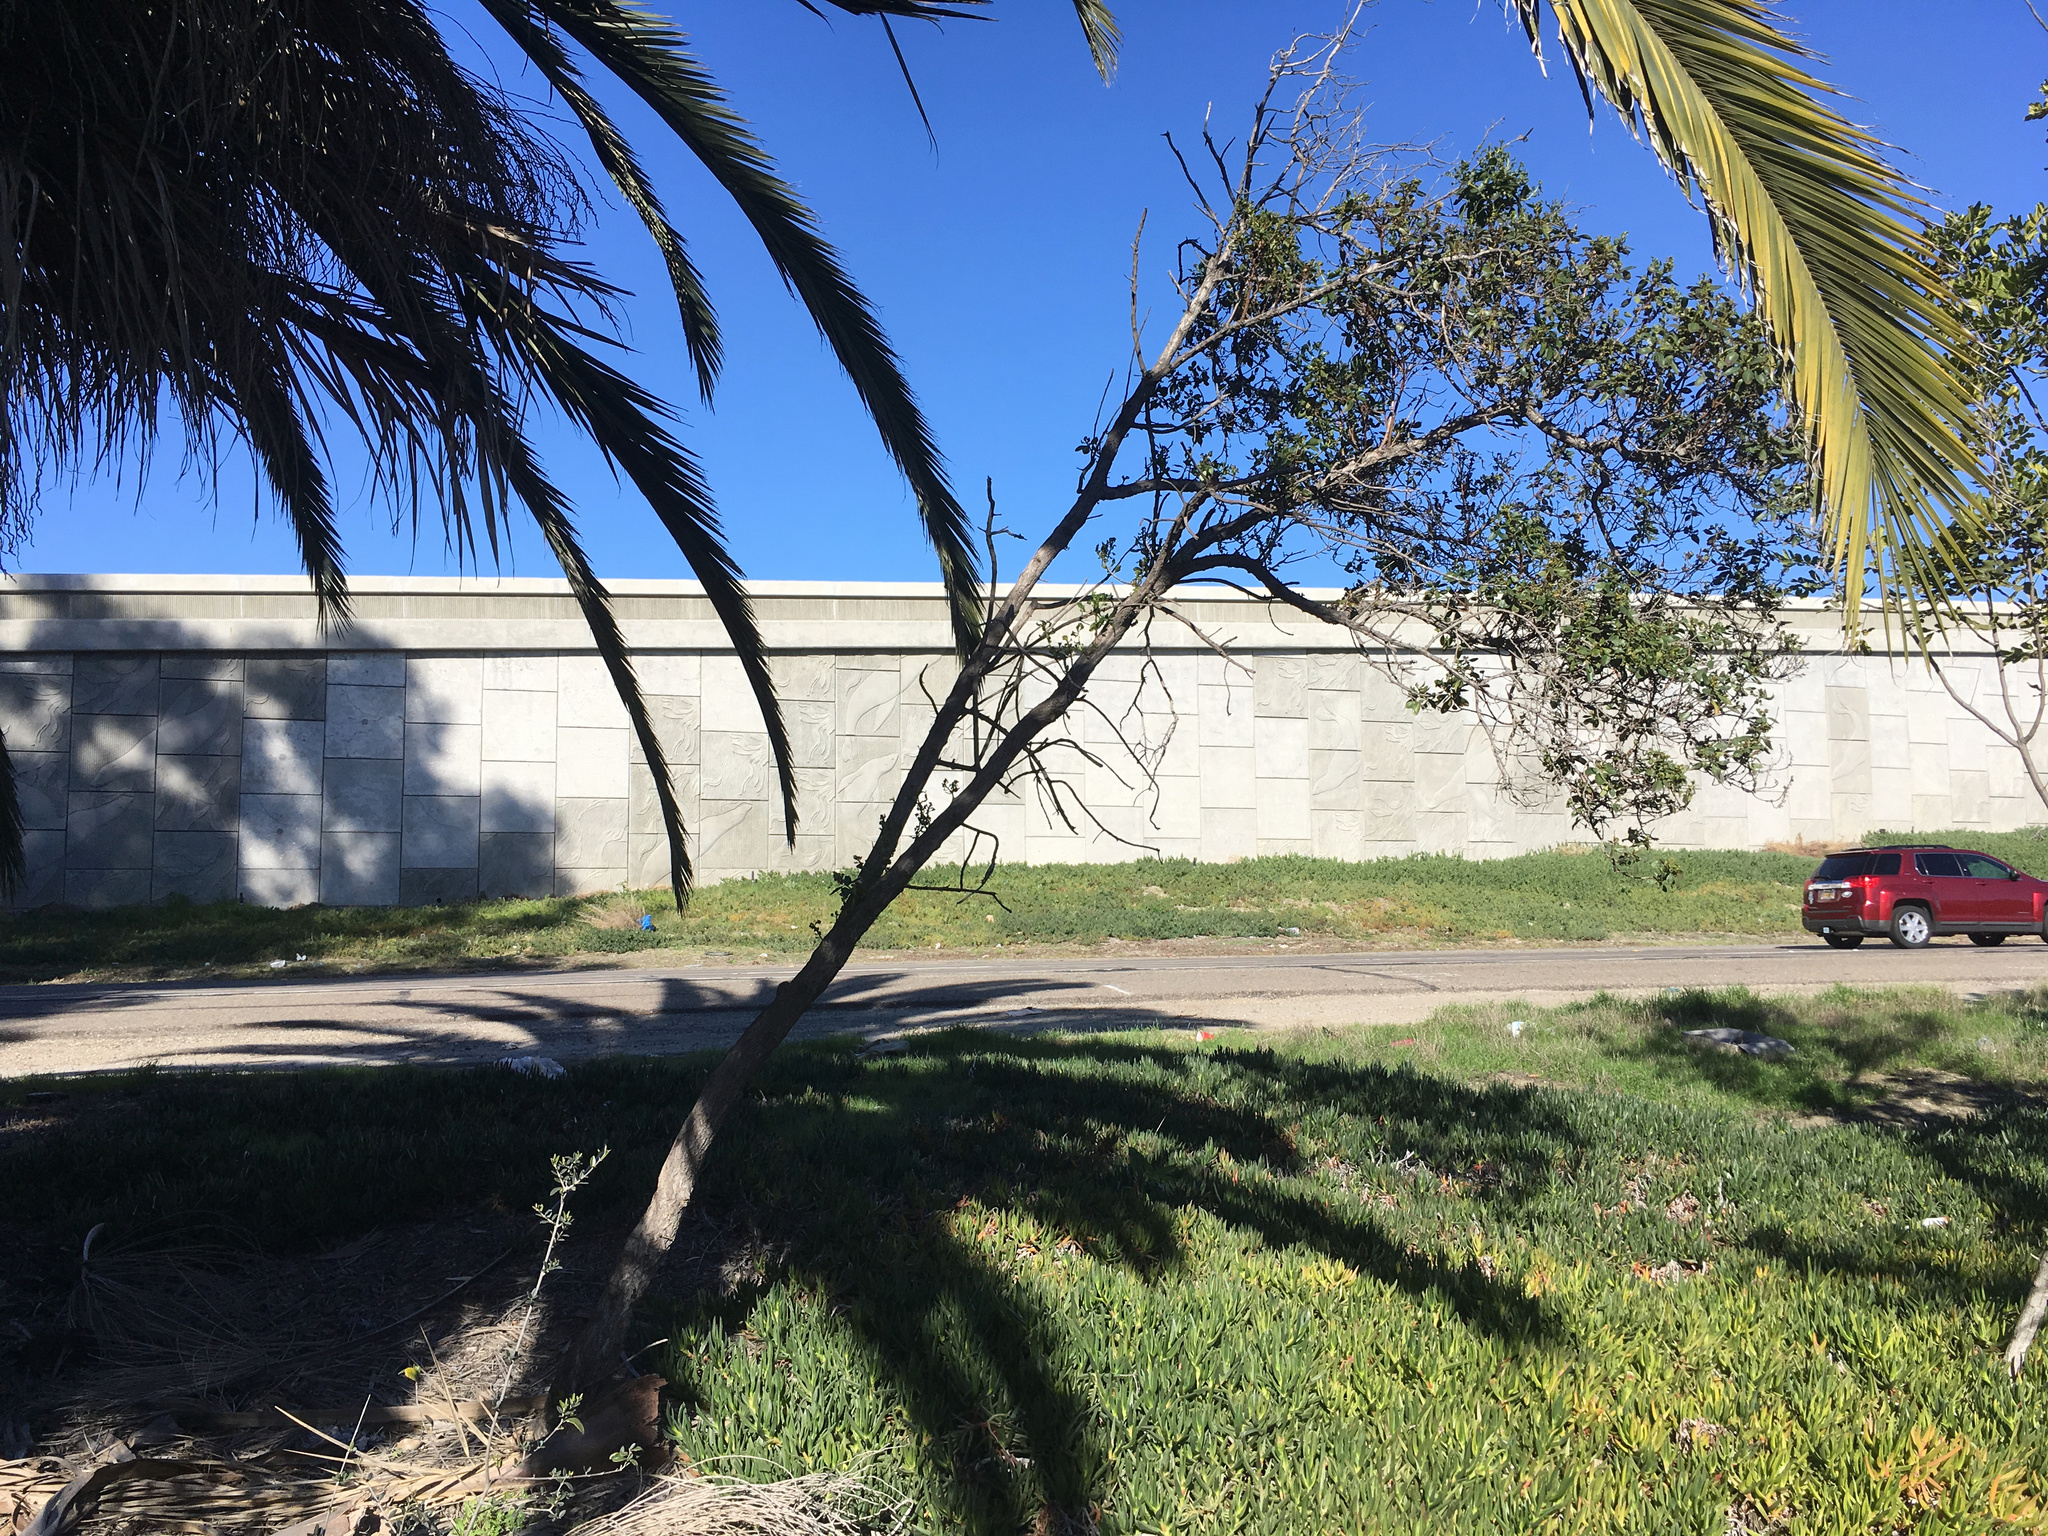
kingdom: Plantae
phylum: Tracheophyta
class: Magnoliopsida
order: Lamiales
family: Scrophulariaceae
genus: Myoporum
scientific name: Myoporum laetum
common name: Ngaio tree
